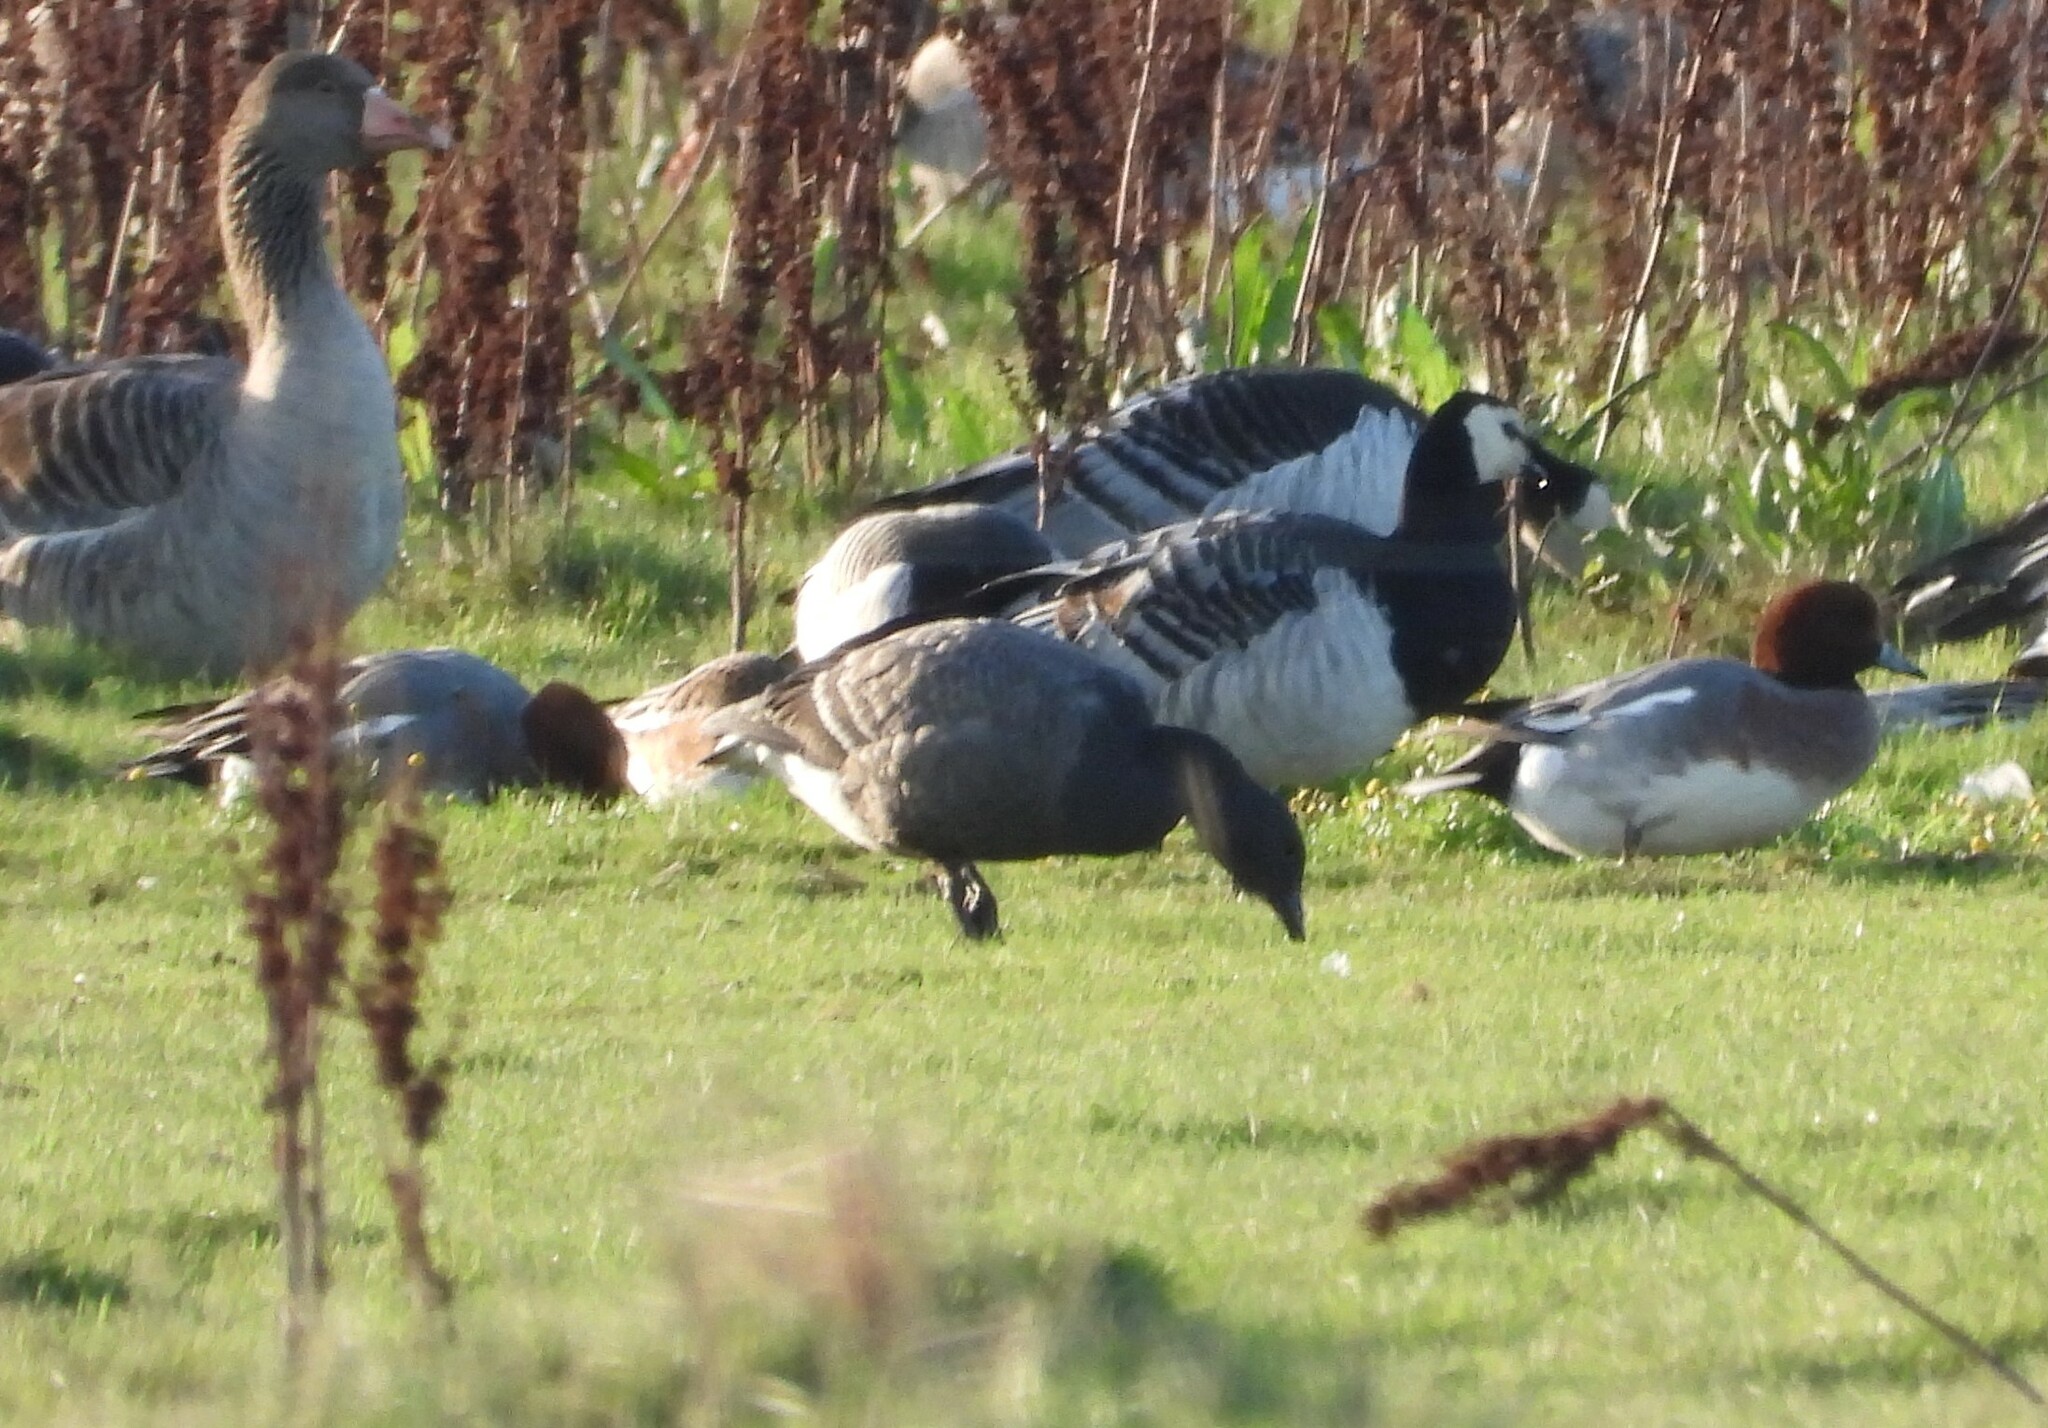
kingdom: Animalia
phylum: Chordata
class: Aves
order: Anseriformes
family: Anatidae
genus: Branta
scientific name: Branta bernicla
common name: Brant goose
